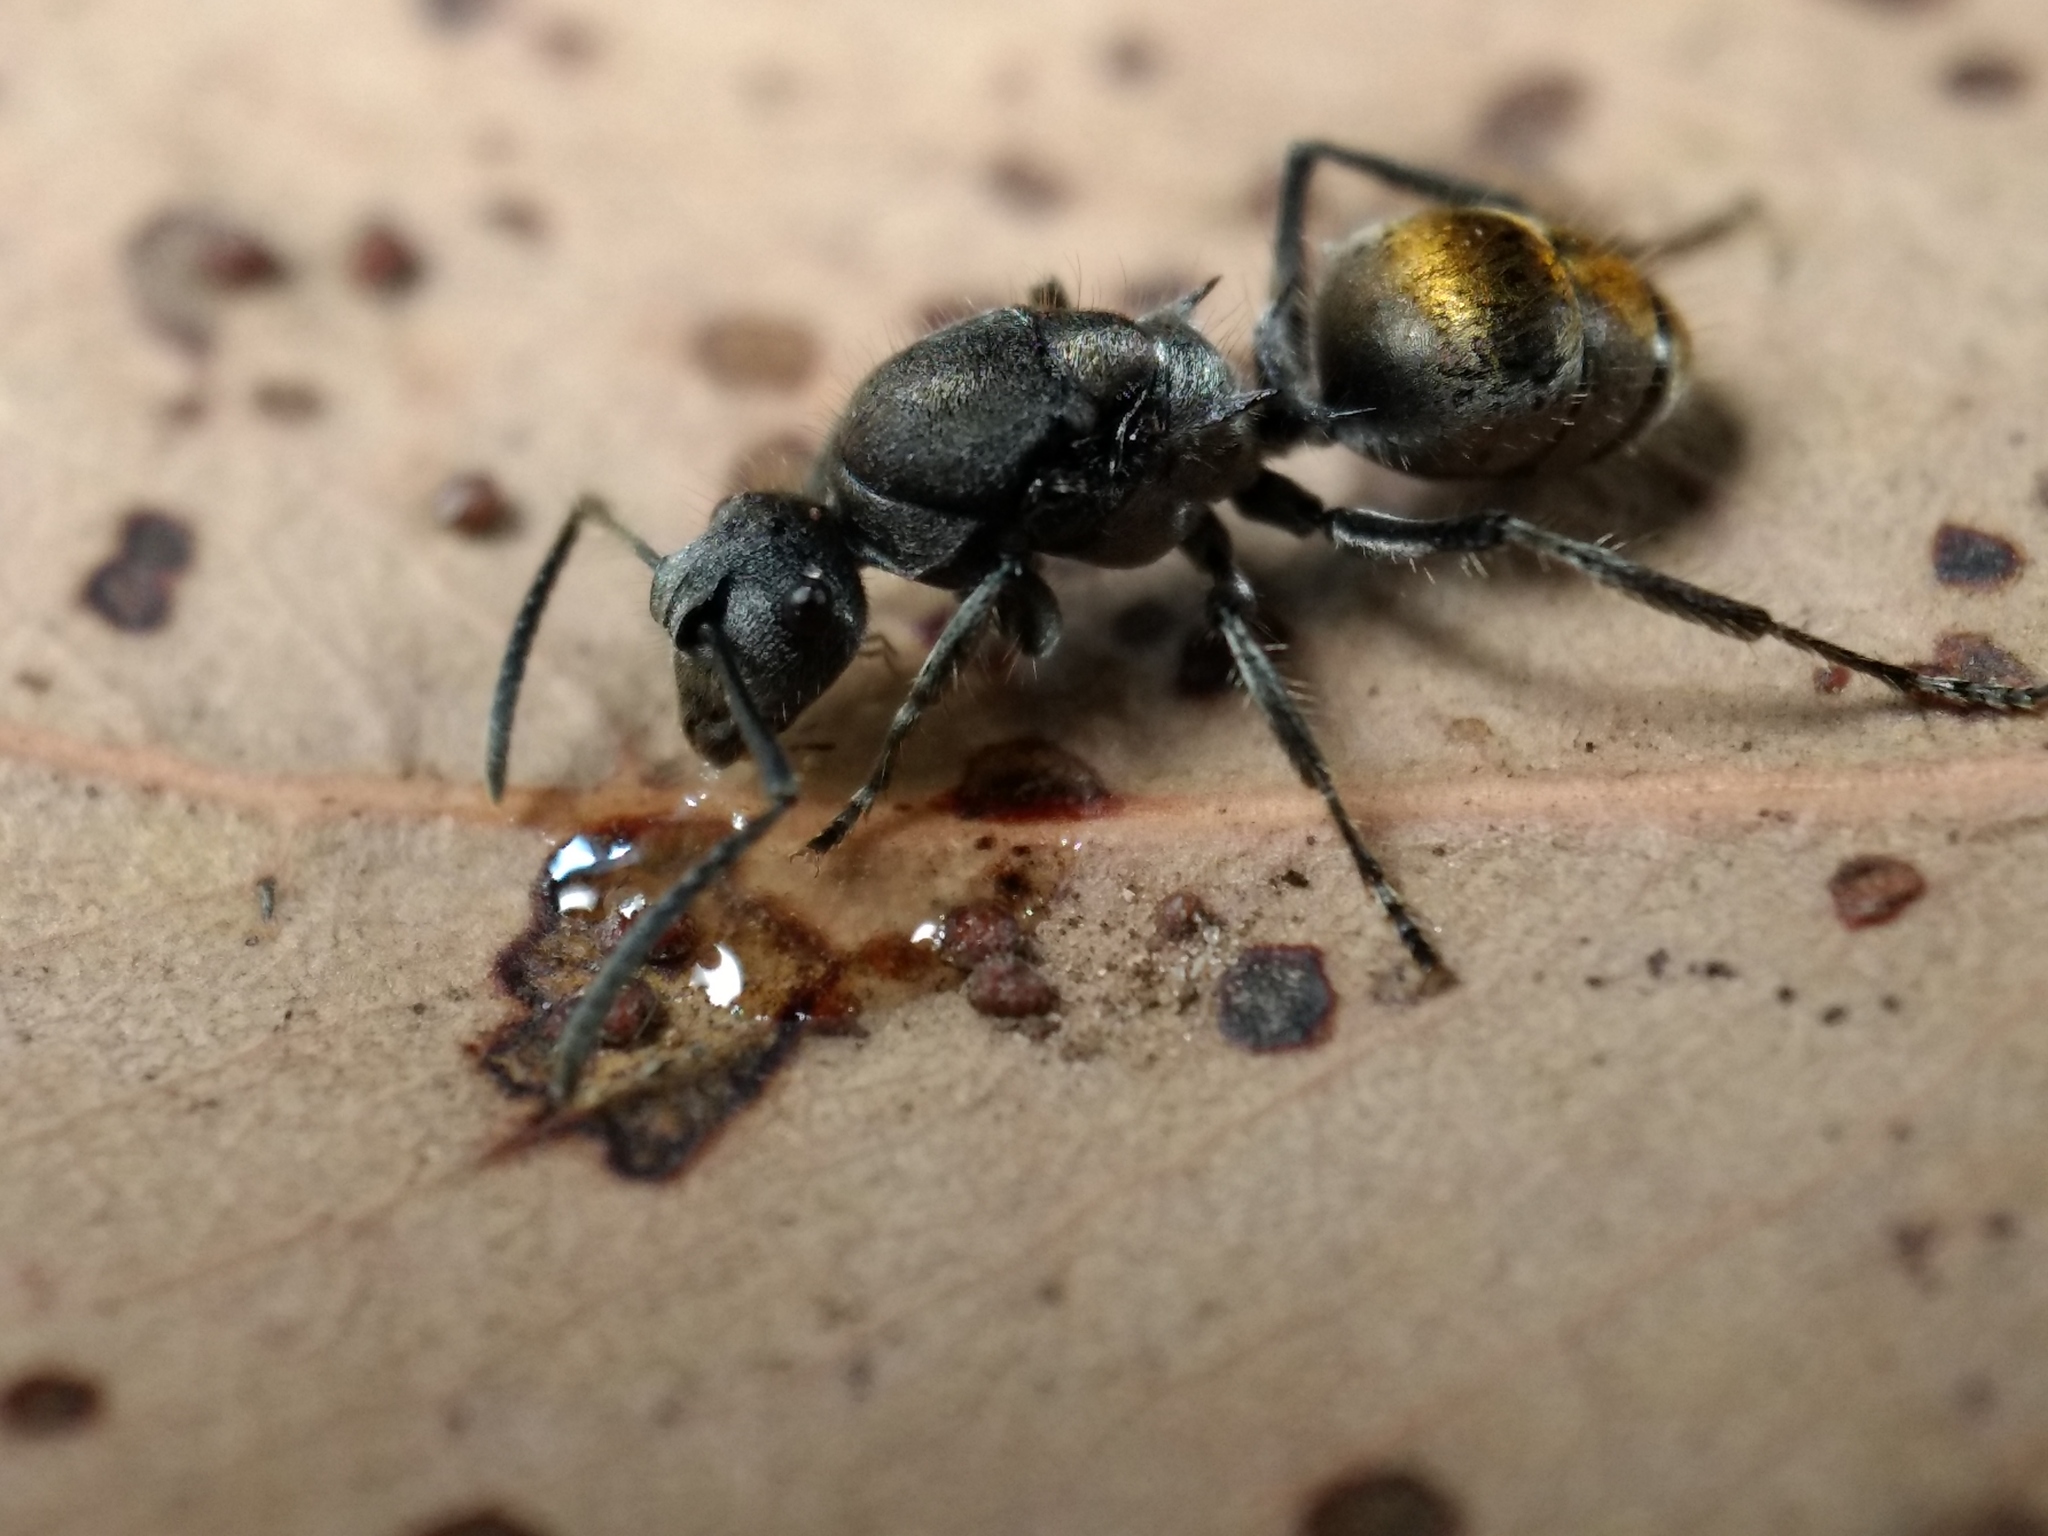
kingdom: Animalia
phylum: Arthropoda
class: Insecta
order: Hymenoptera
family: Formicidae
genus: Polyrhachis
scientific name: Polyrhachis vermiculosa
